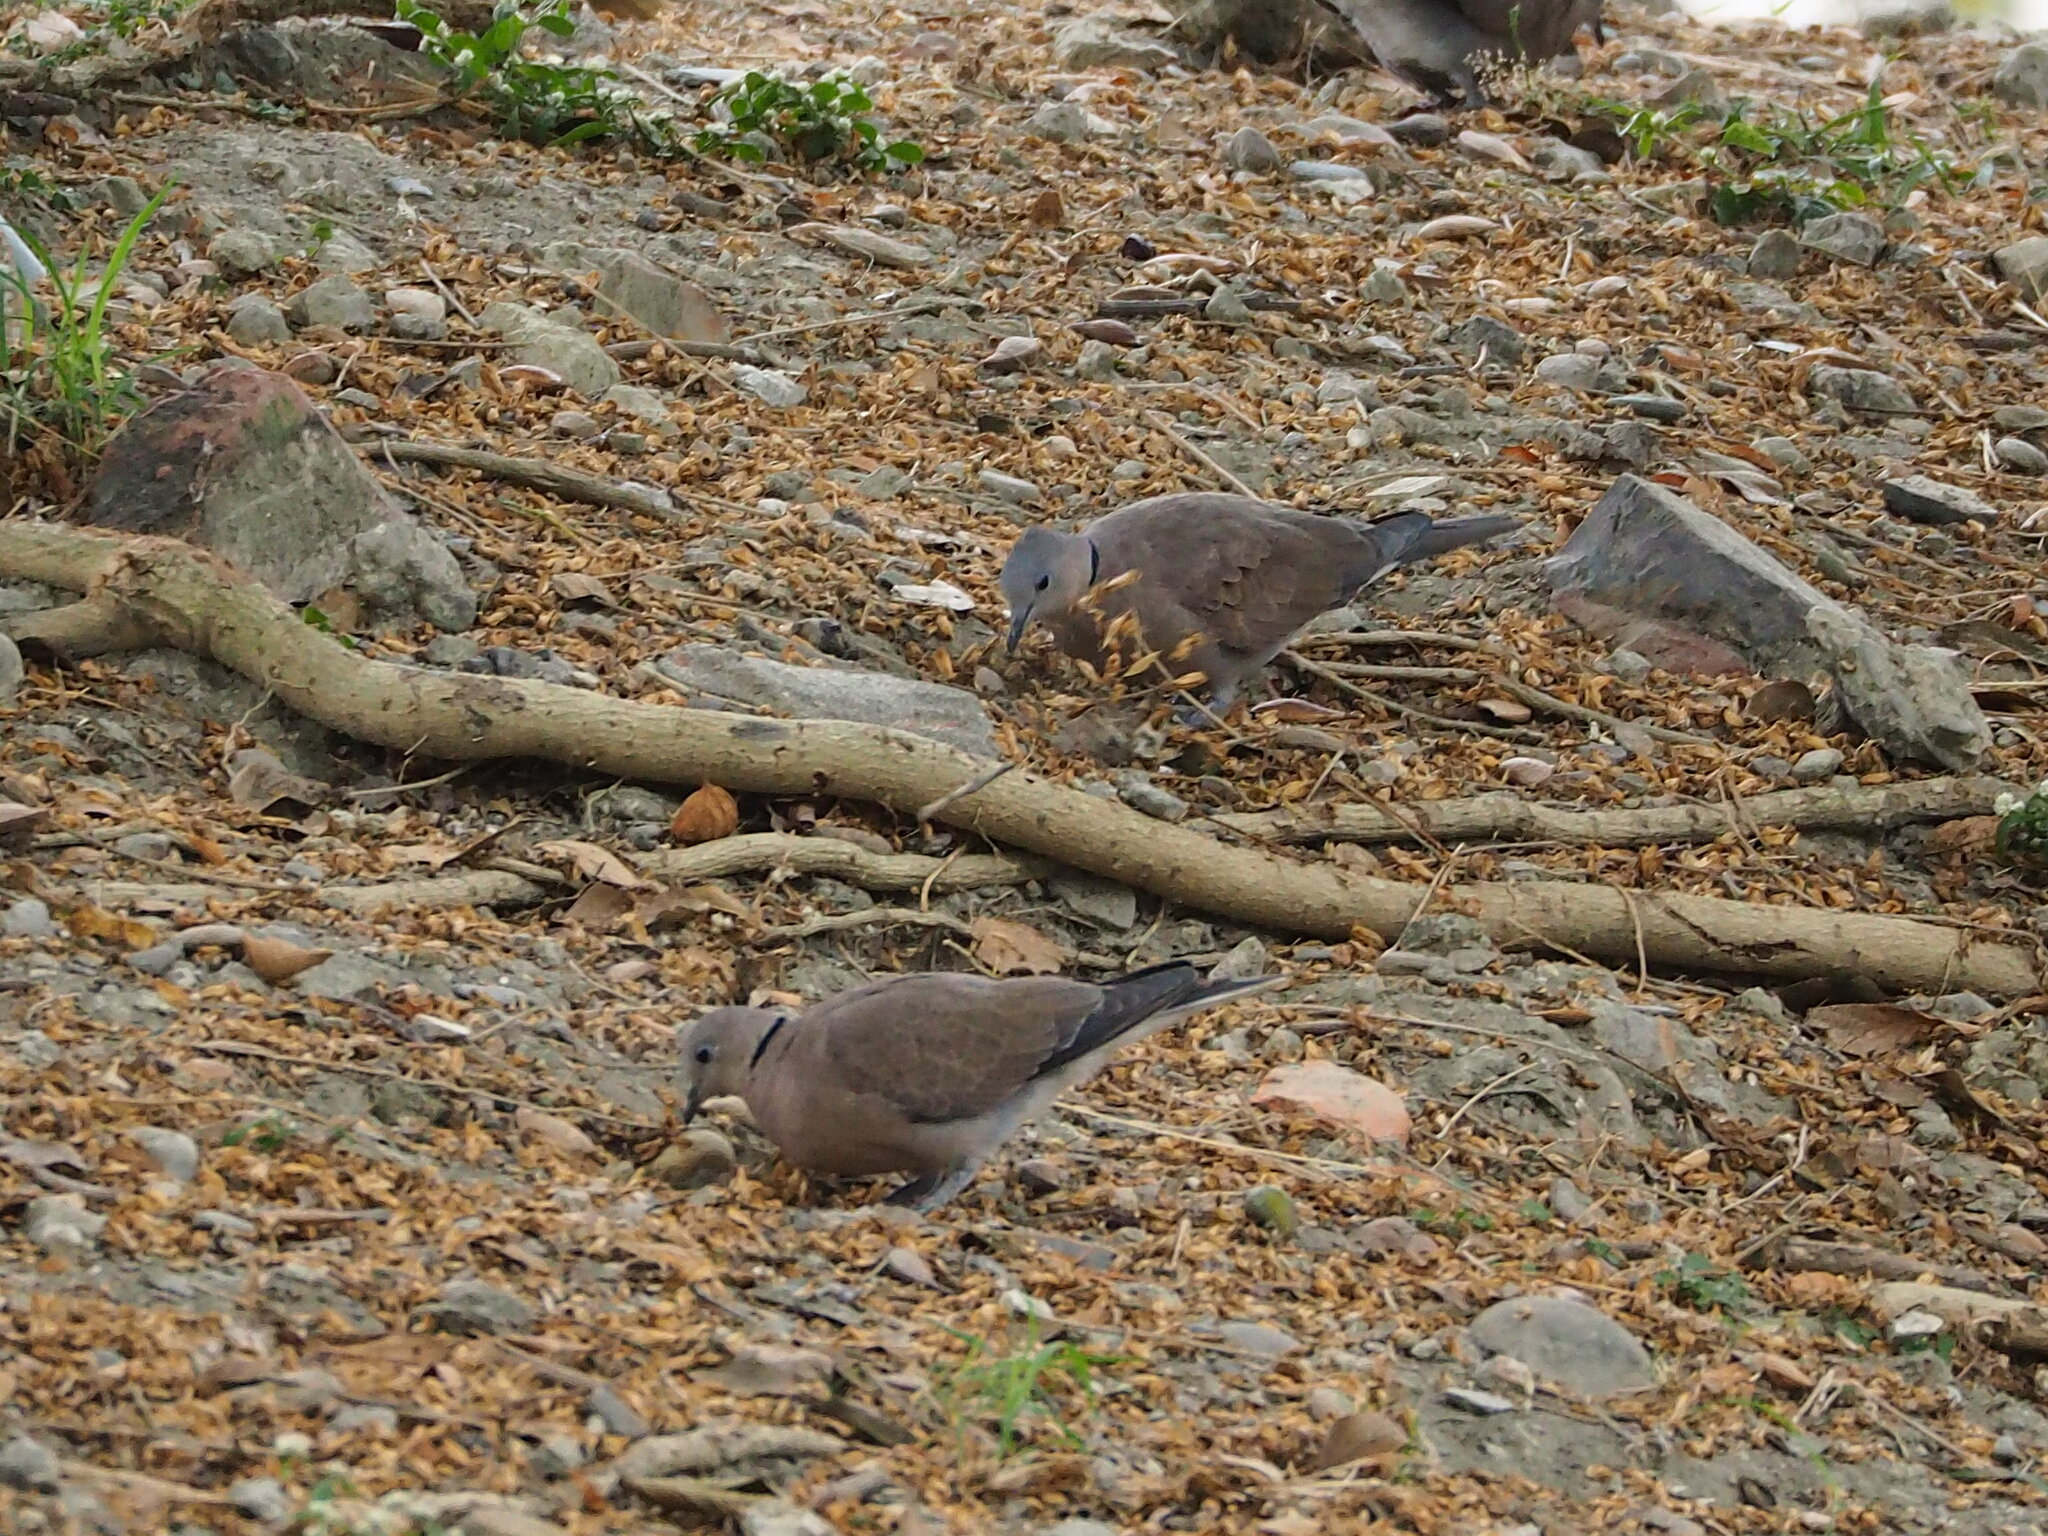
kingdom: Animalia
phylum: Chordata
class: Aves
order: Columbiformes
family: Columbidae
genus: Streptopelia
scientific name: Streptopelia tranquebarica
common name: Red turtle dove
